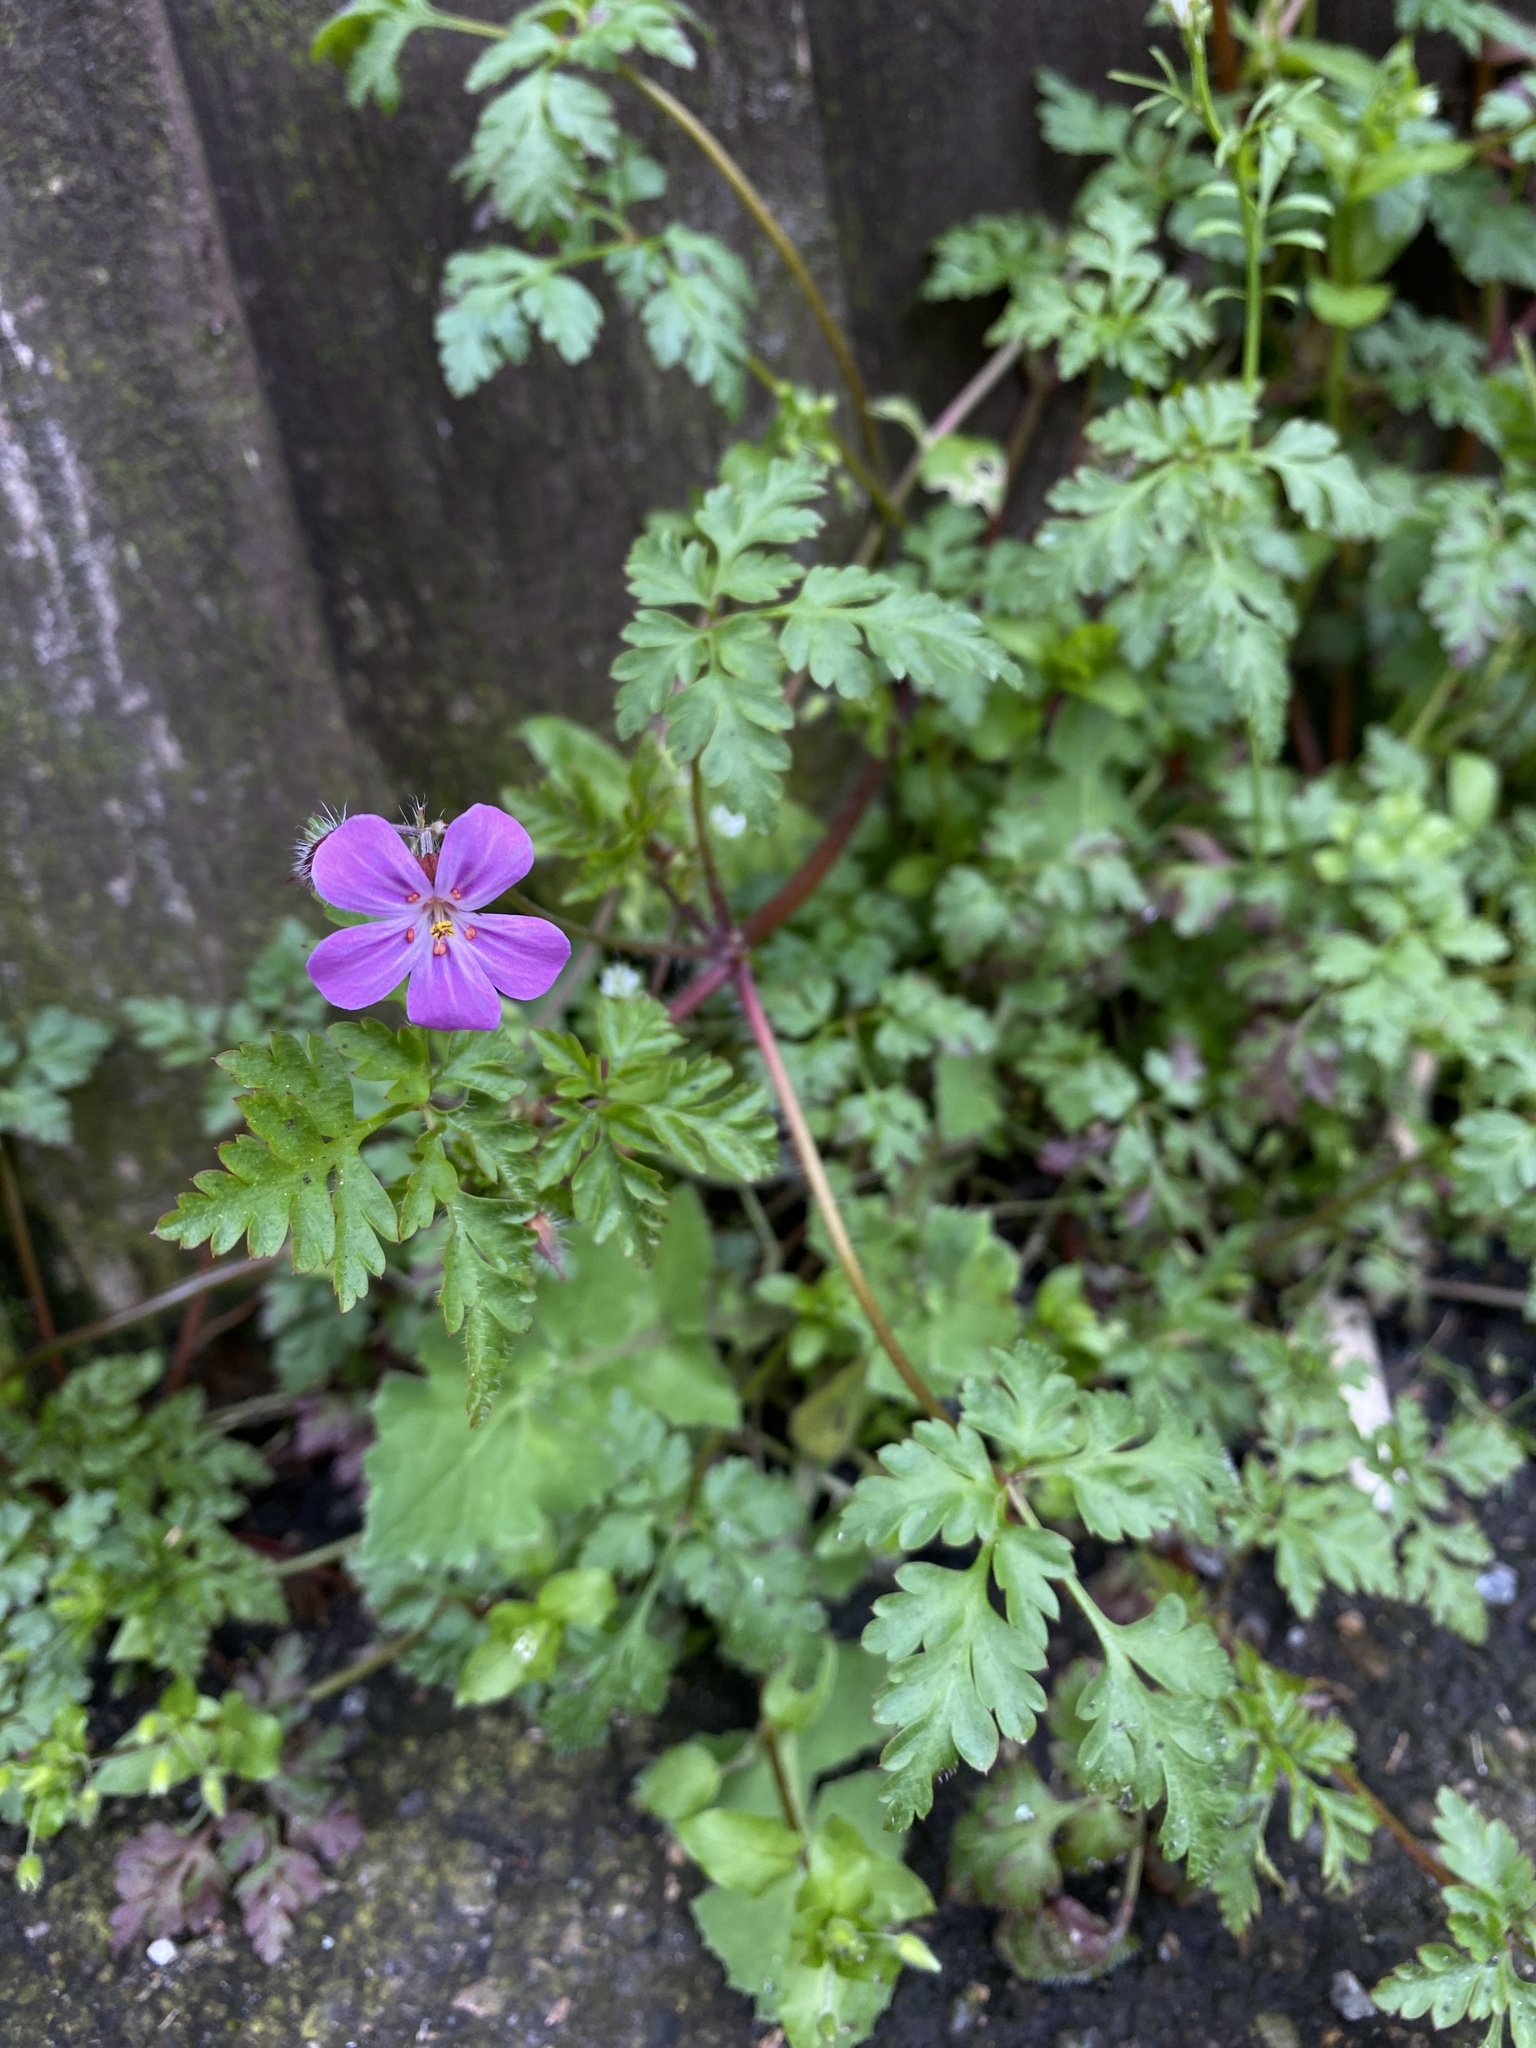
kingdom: Plantae
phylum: Tracheophyta
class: Magnoliopsida
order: Geraniales
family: Geraniaceae
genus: Geranium
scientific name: Geranium robertianum
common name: Herb-robert
